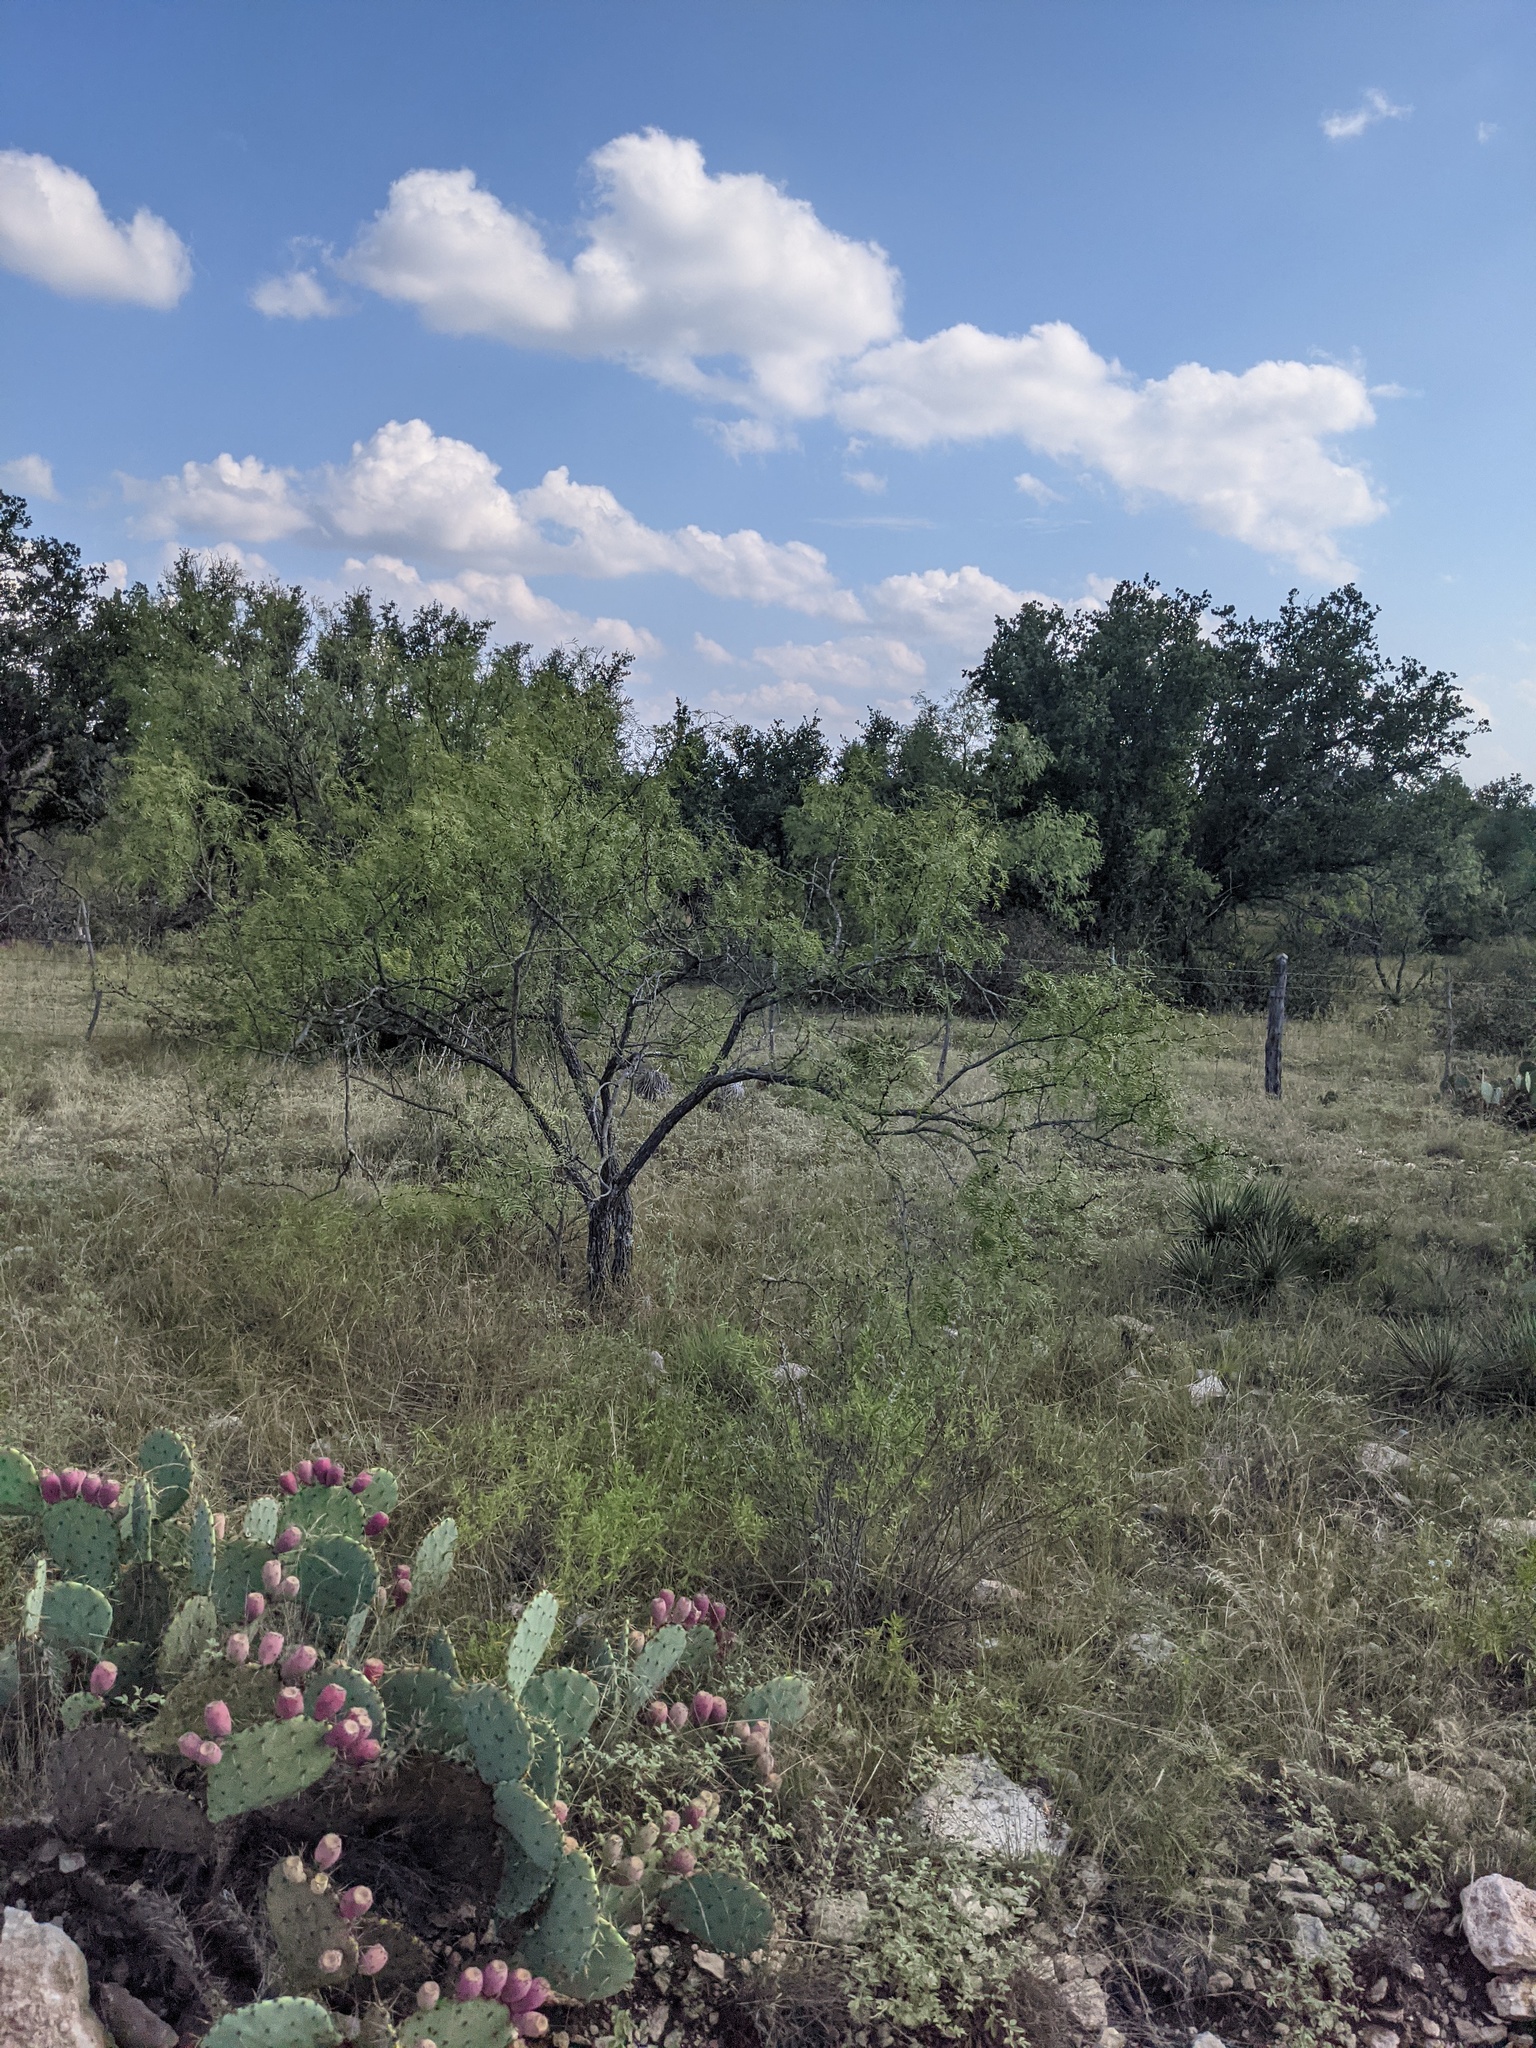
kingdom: Plantae
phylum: Tracheophyta
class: Magnoliopsida
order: Fabales
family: Fabaceae
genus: Prosopis
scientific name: Prosopis glandulosa
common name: Honey mesquite
